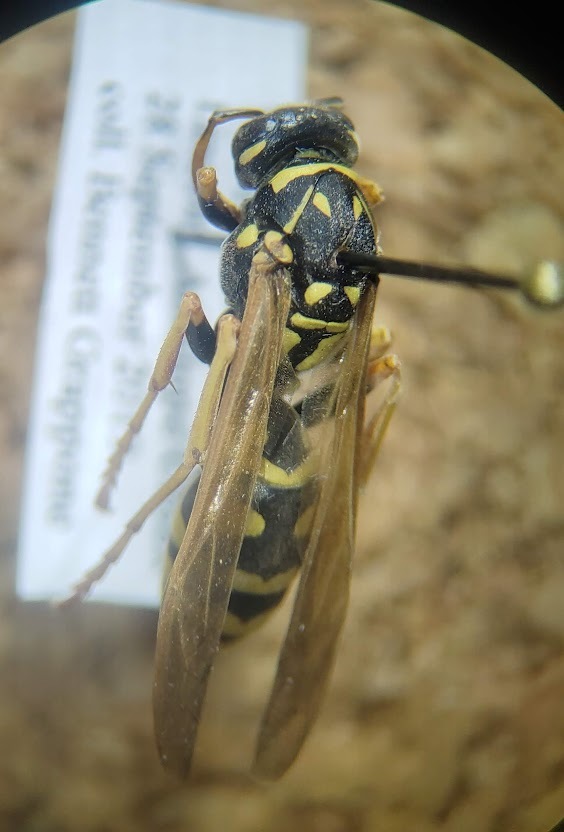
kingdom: Animalia
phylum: Arthropoda
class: Insecta
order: Hymenoptera
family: Eumenidae
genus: Polistes
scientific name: Polistes dominula
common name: Paper wasp
